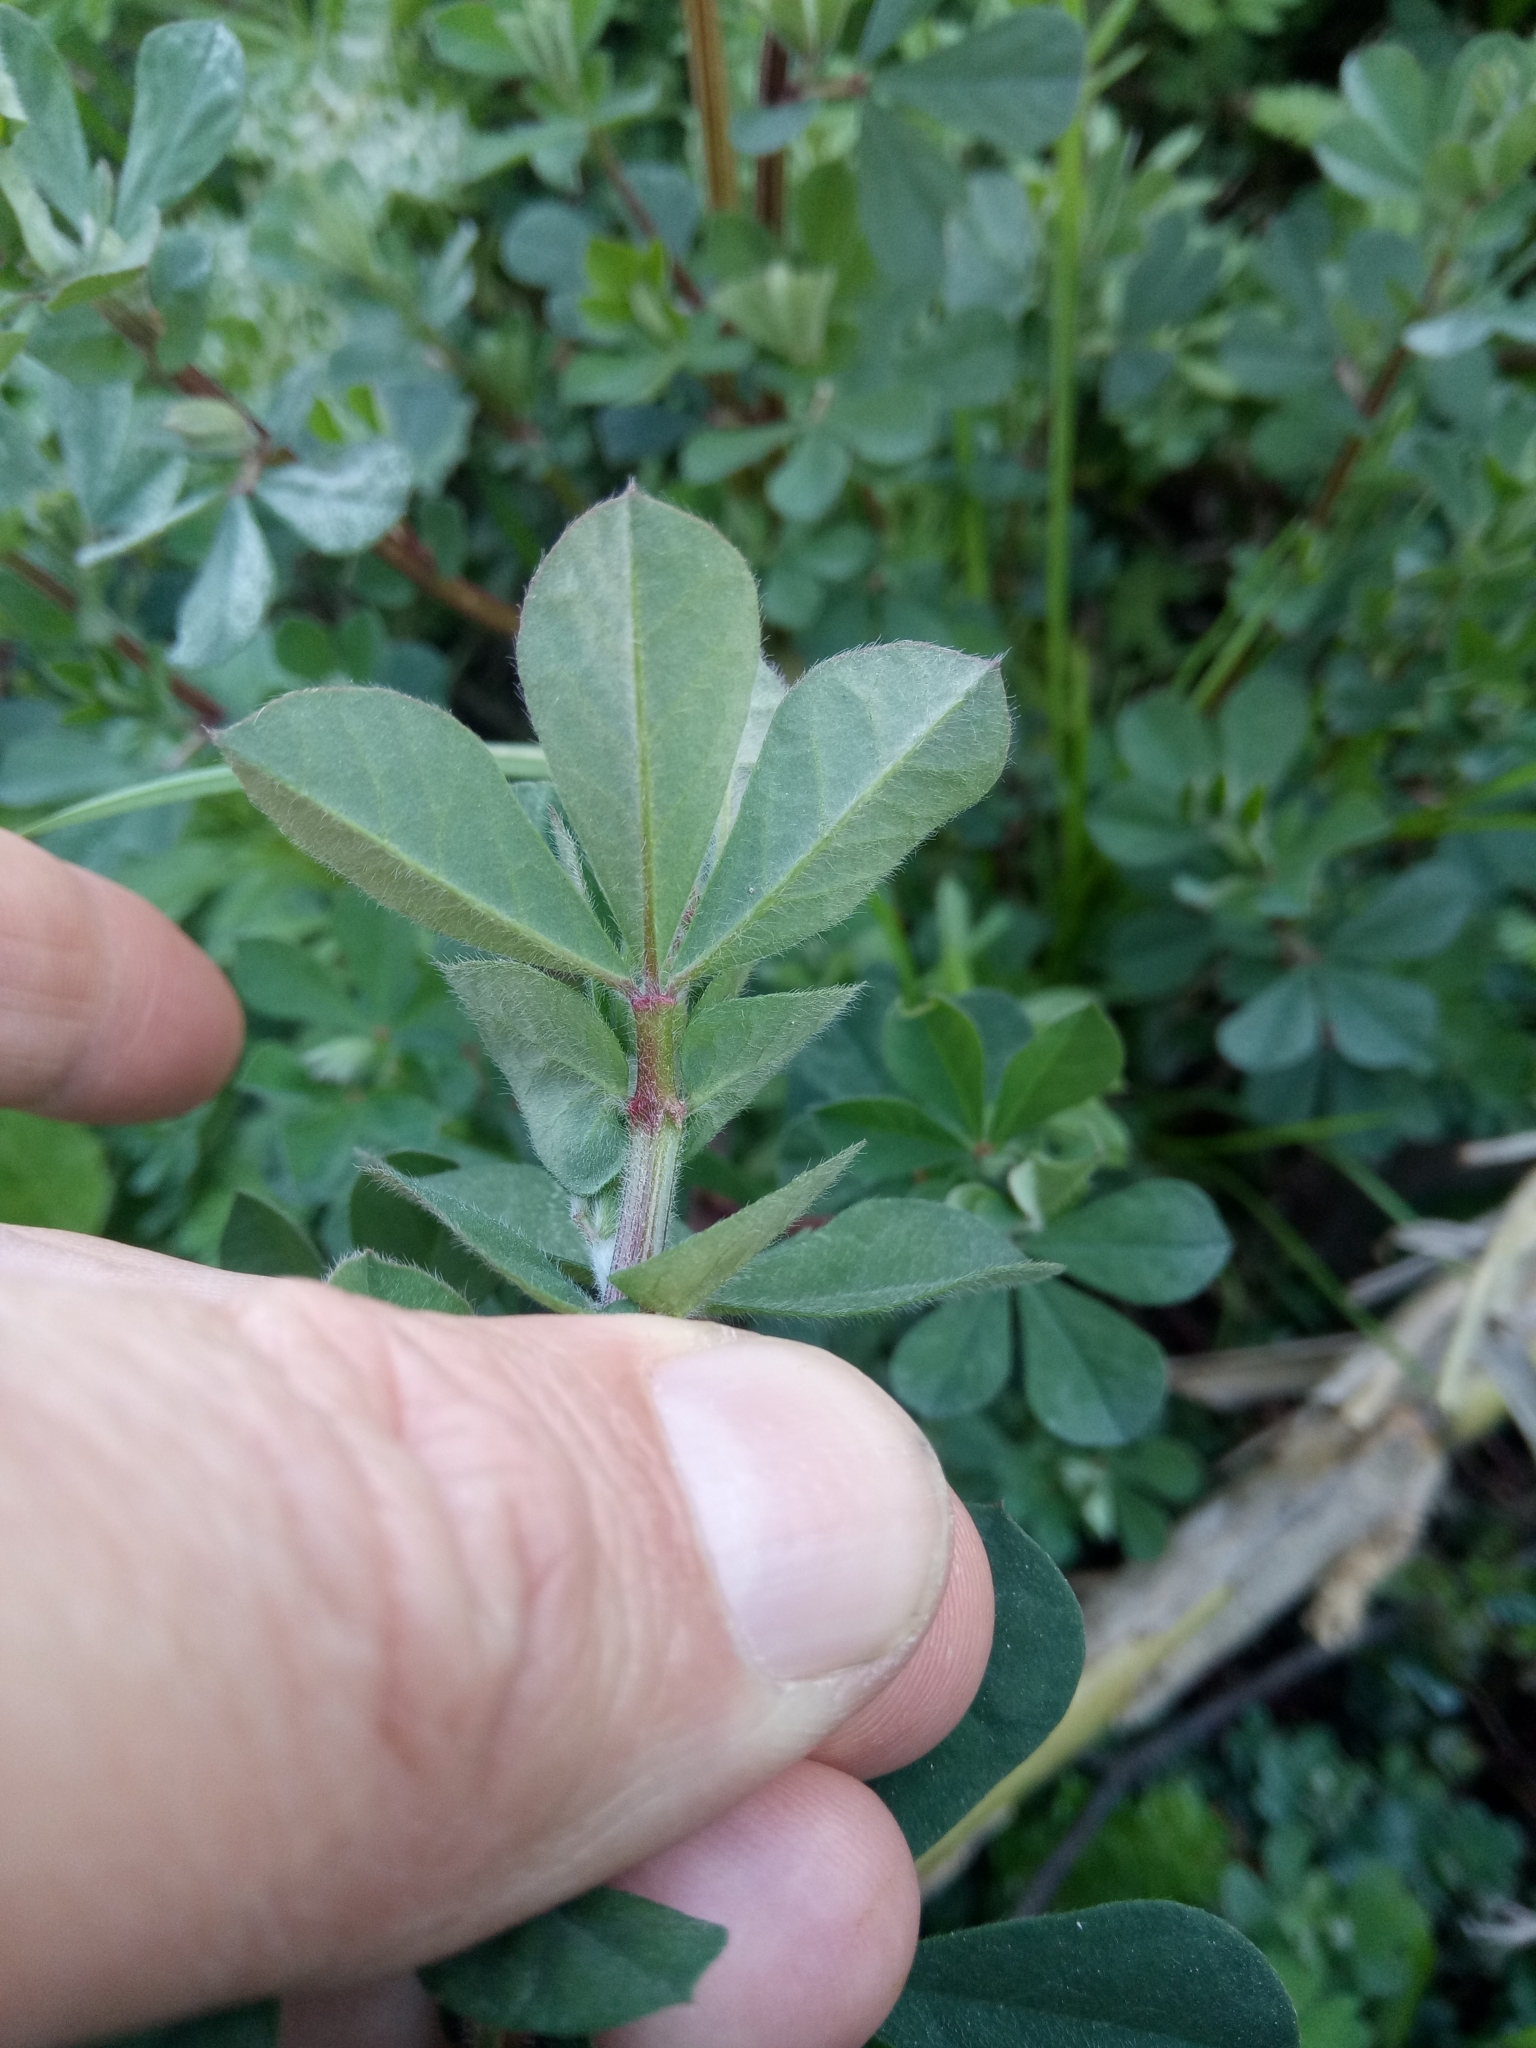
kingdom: Plantae
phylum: Tracheophyta
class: Magnoliopsida
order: Fabales
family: Fabaceae
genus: Lotus
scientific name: Lotus rectus
